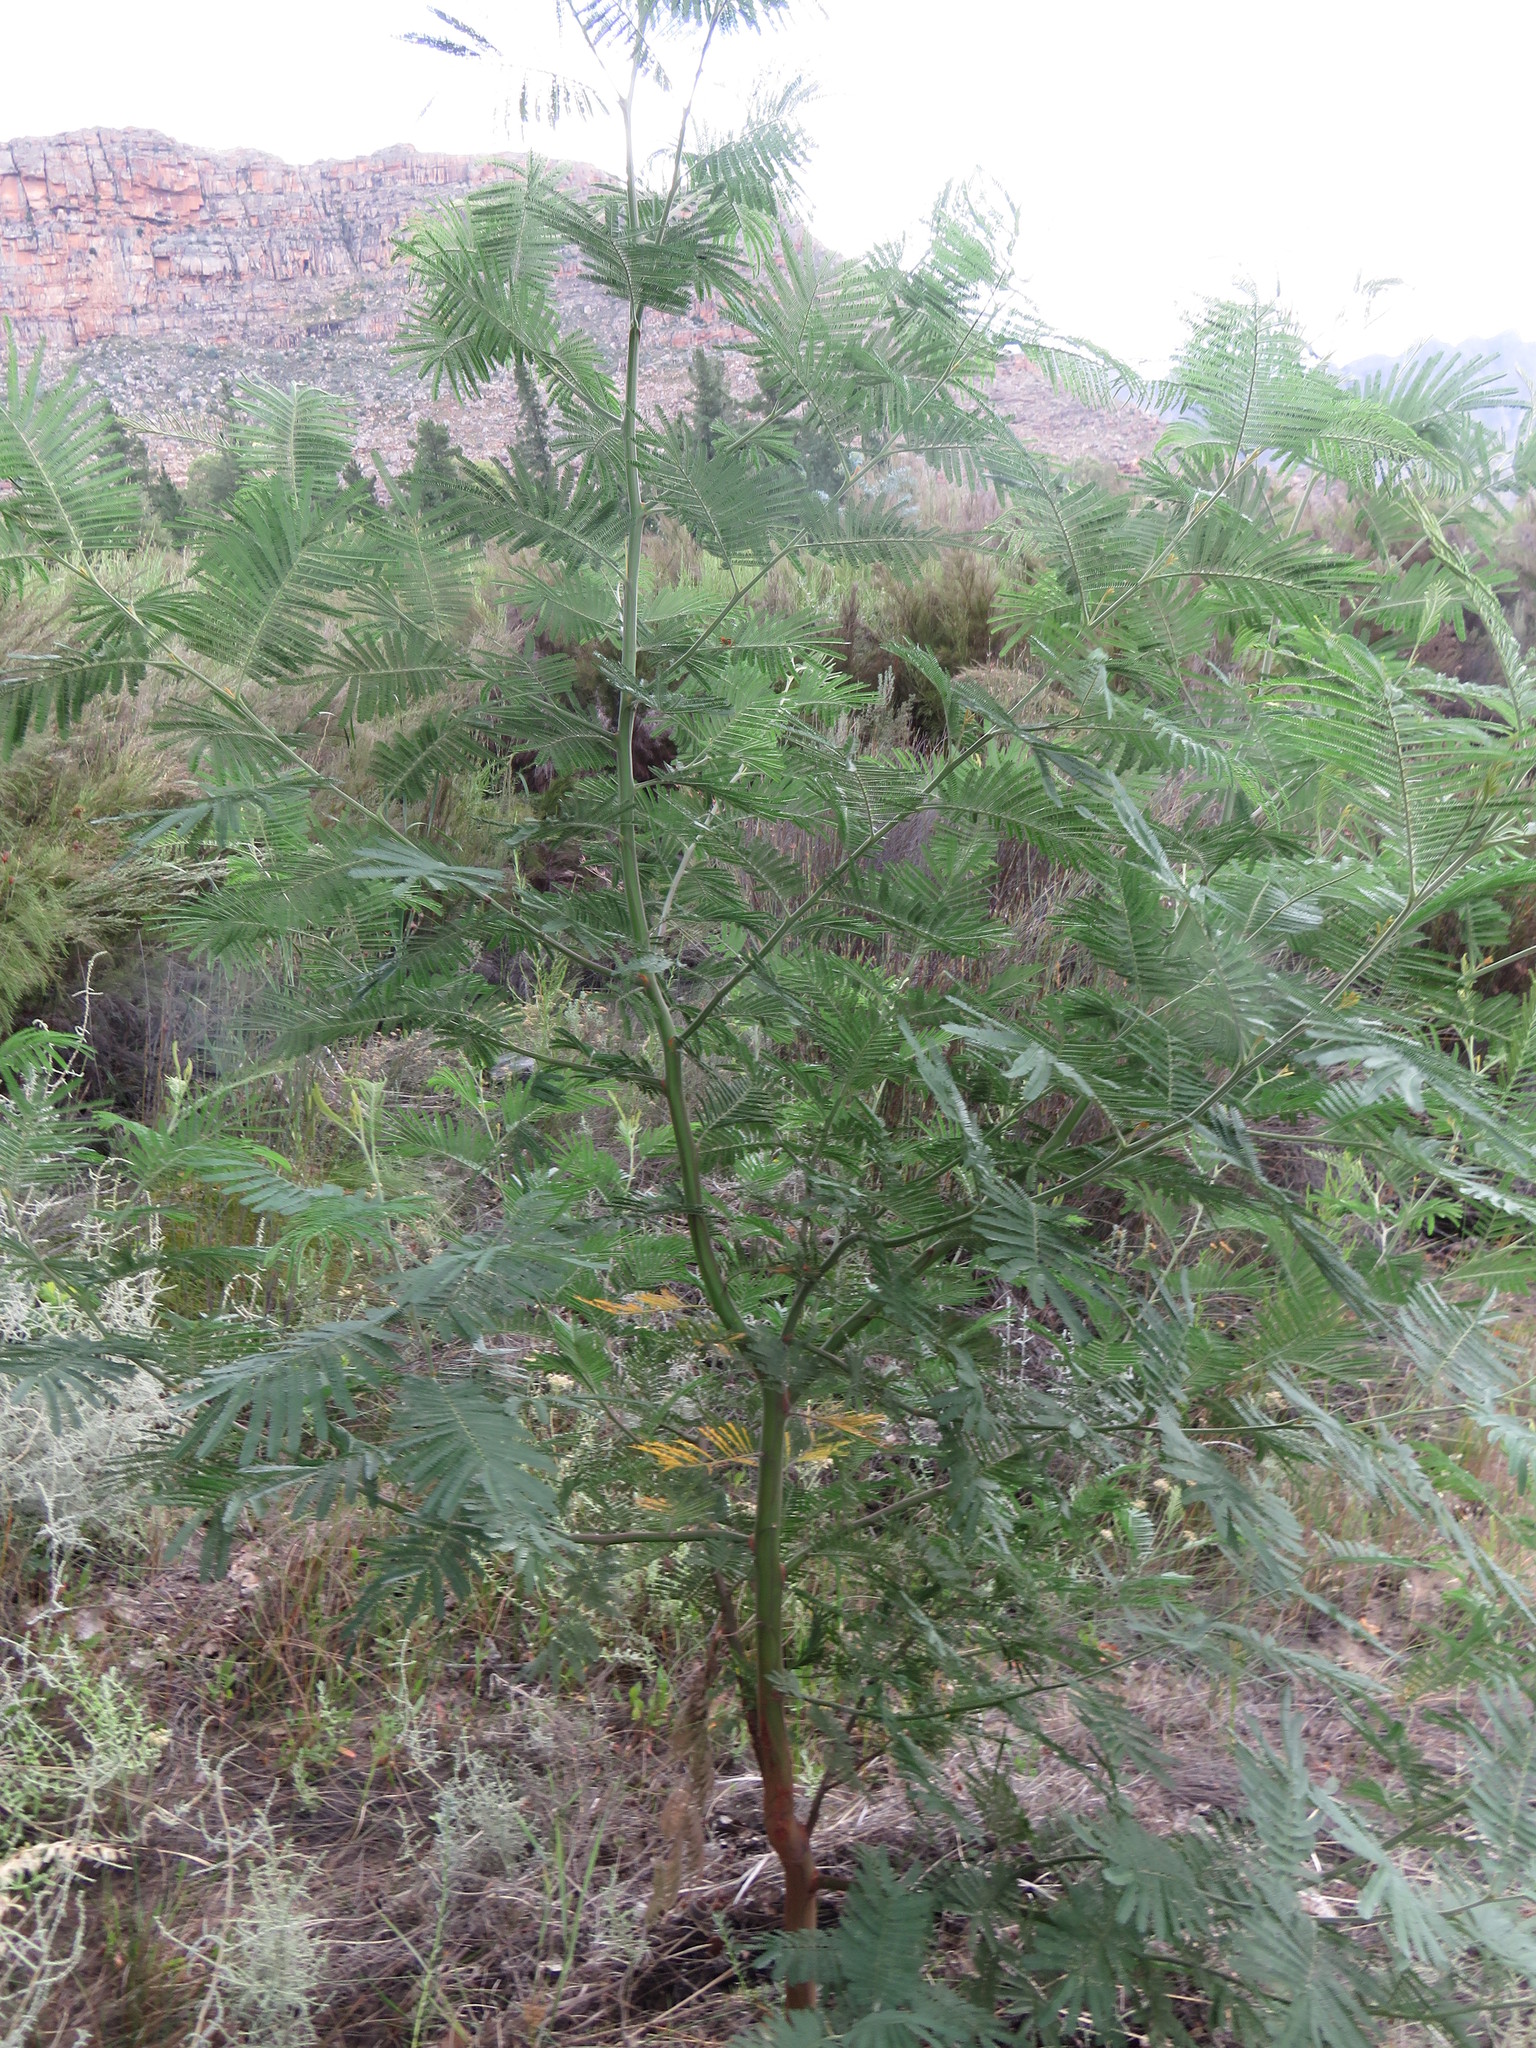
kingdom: Plantae
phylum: Tracheophyta
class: Magnoliopsida
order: Fabales
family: Fabaceae
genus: Acacia
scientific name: Acacia mearnsii
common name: Black wattle
